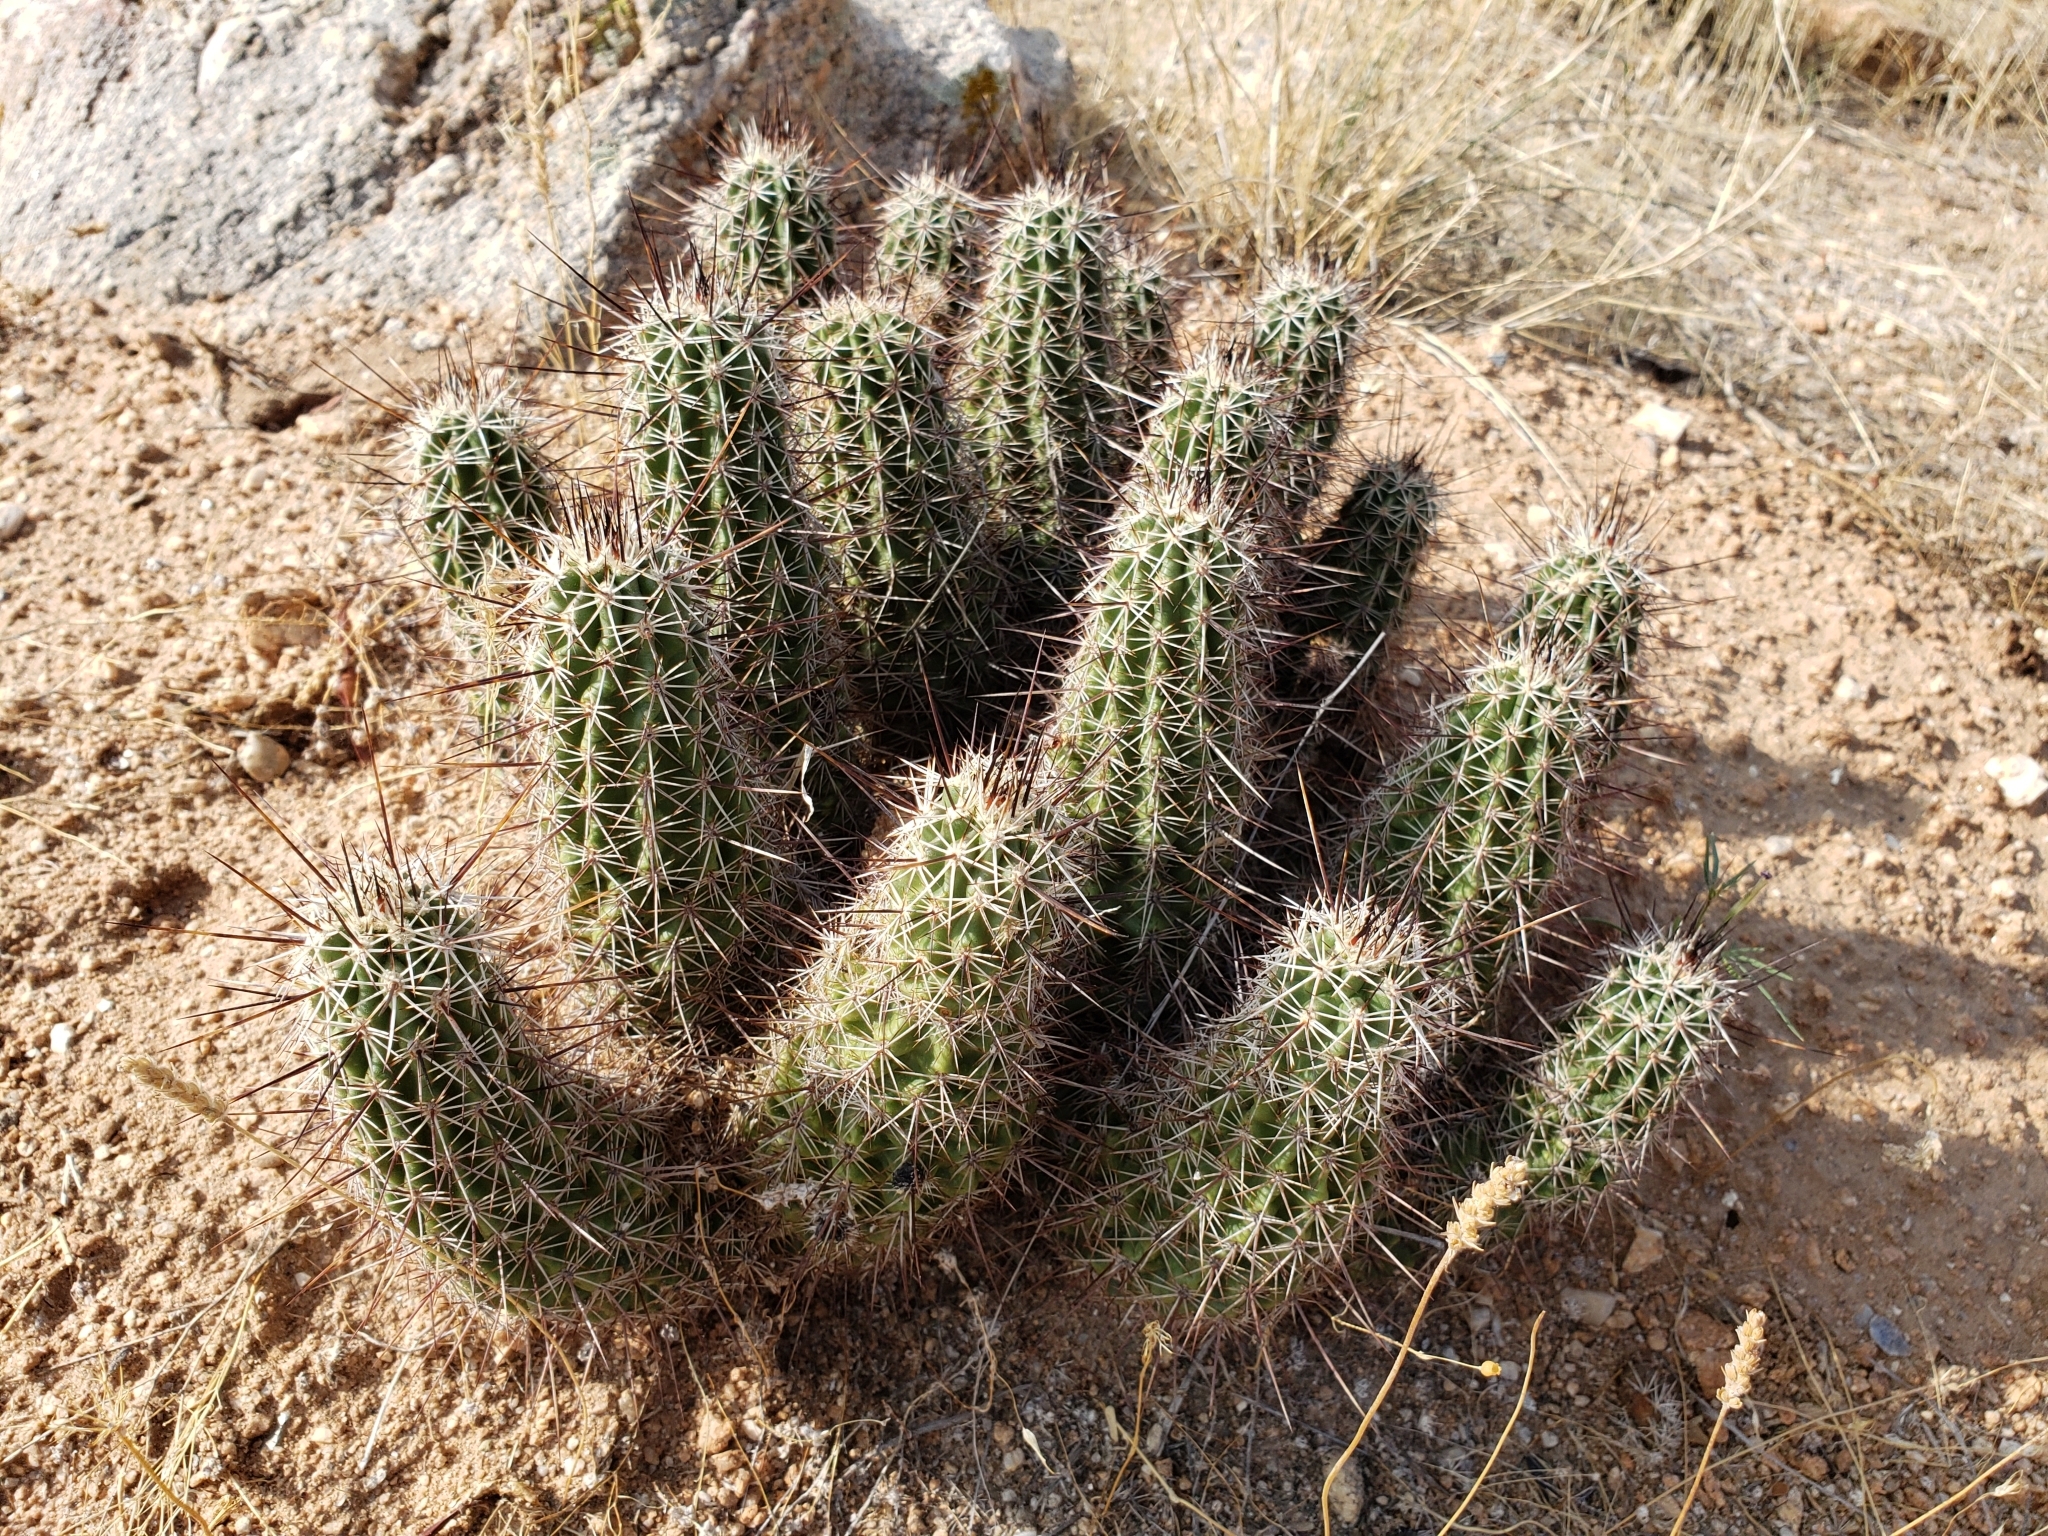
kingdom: Plantae
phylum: Tracheophyta
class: Magnoliopsida
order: Caryophyllales
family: Cactaceae
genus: Echinocereus
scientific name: Echinocereus fasciculatus
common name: Bundle hedgehog
